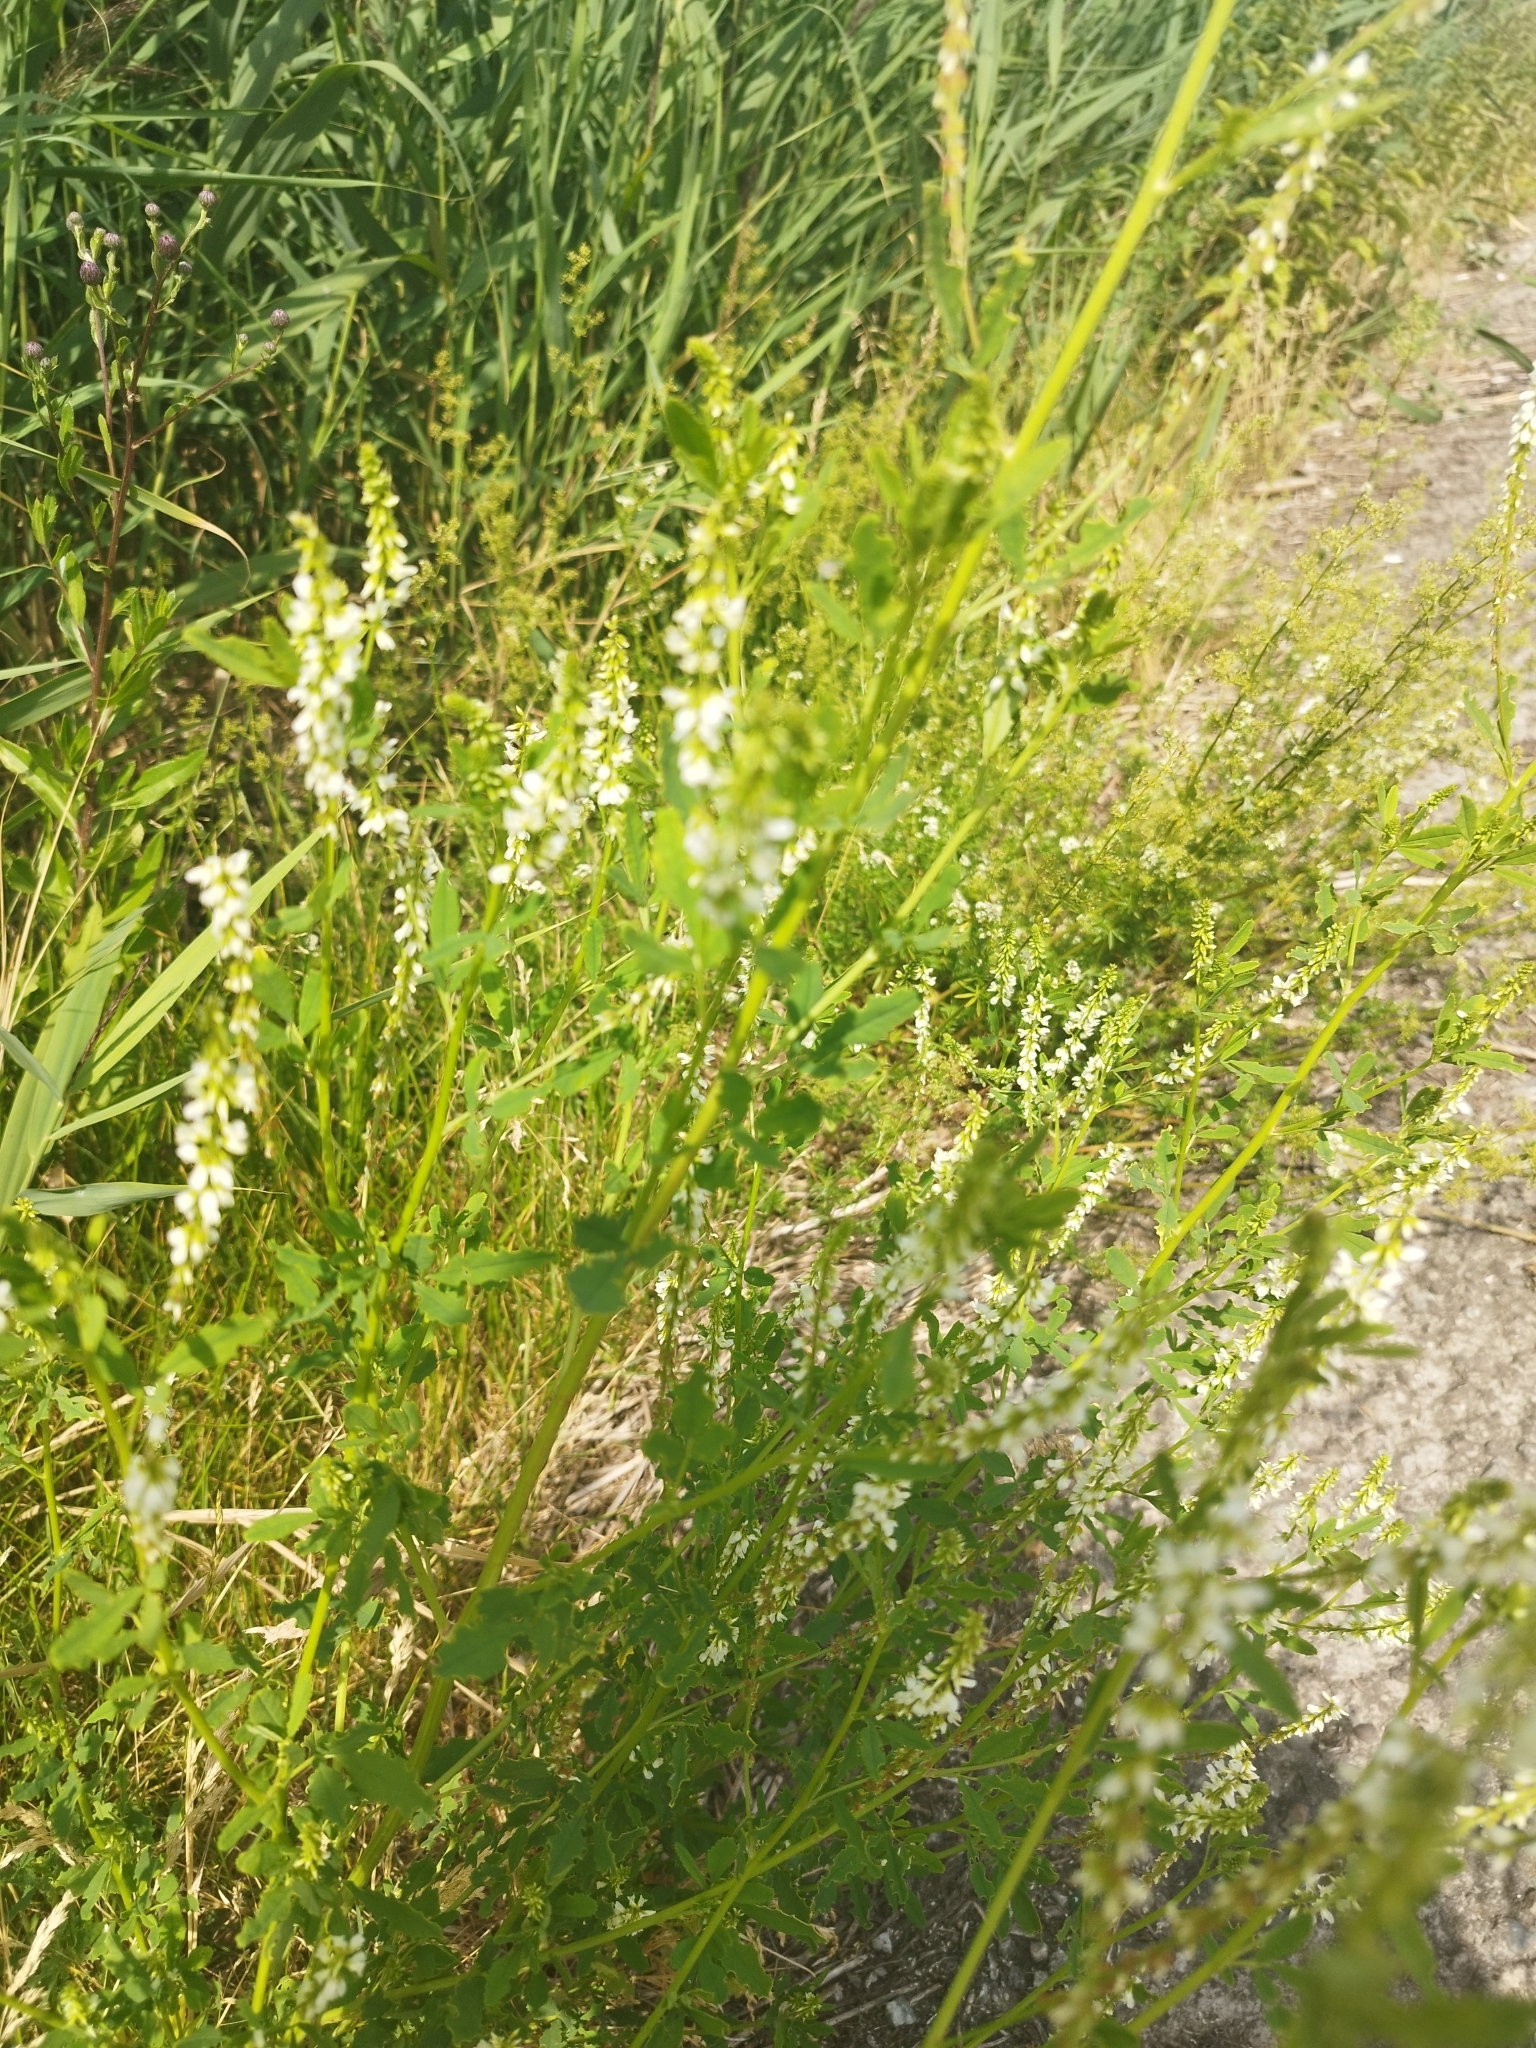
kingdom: Plantae
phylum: Tracheophyta
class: Magnoliopsida
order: Fabales
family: Fabaceae
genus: Melilotus
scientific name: Melilotus albus
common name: White melilot
